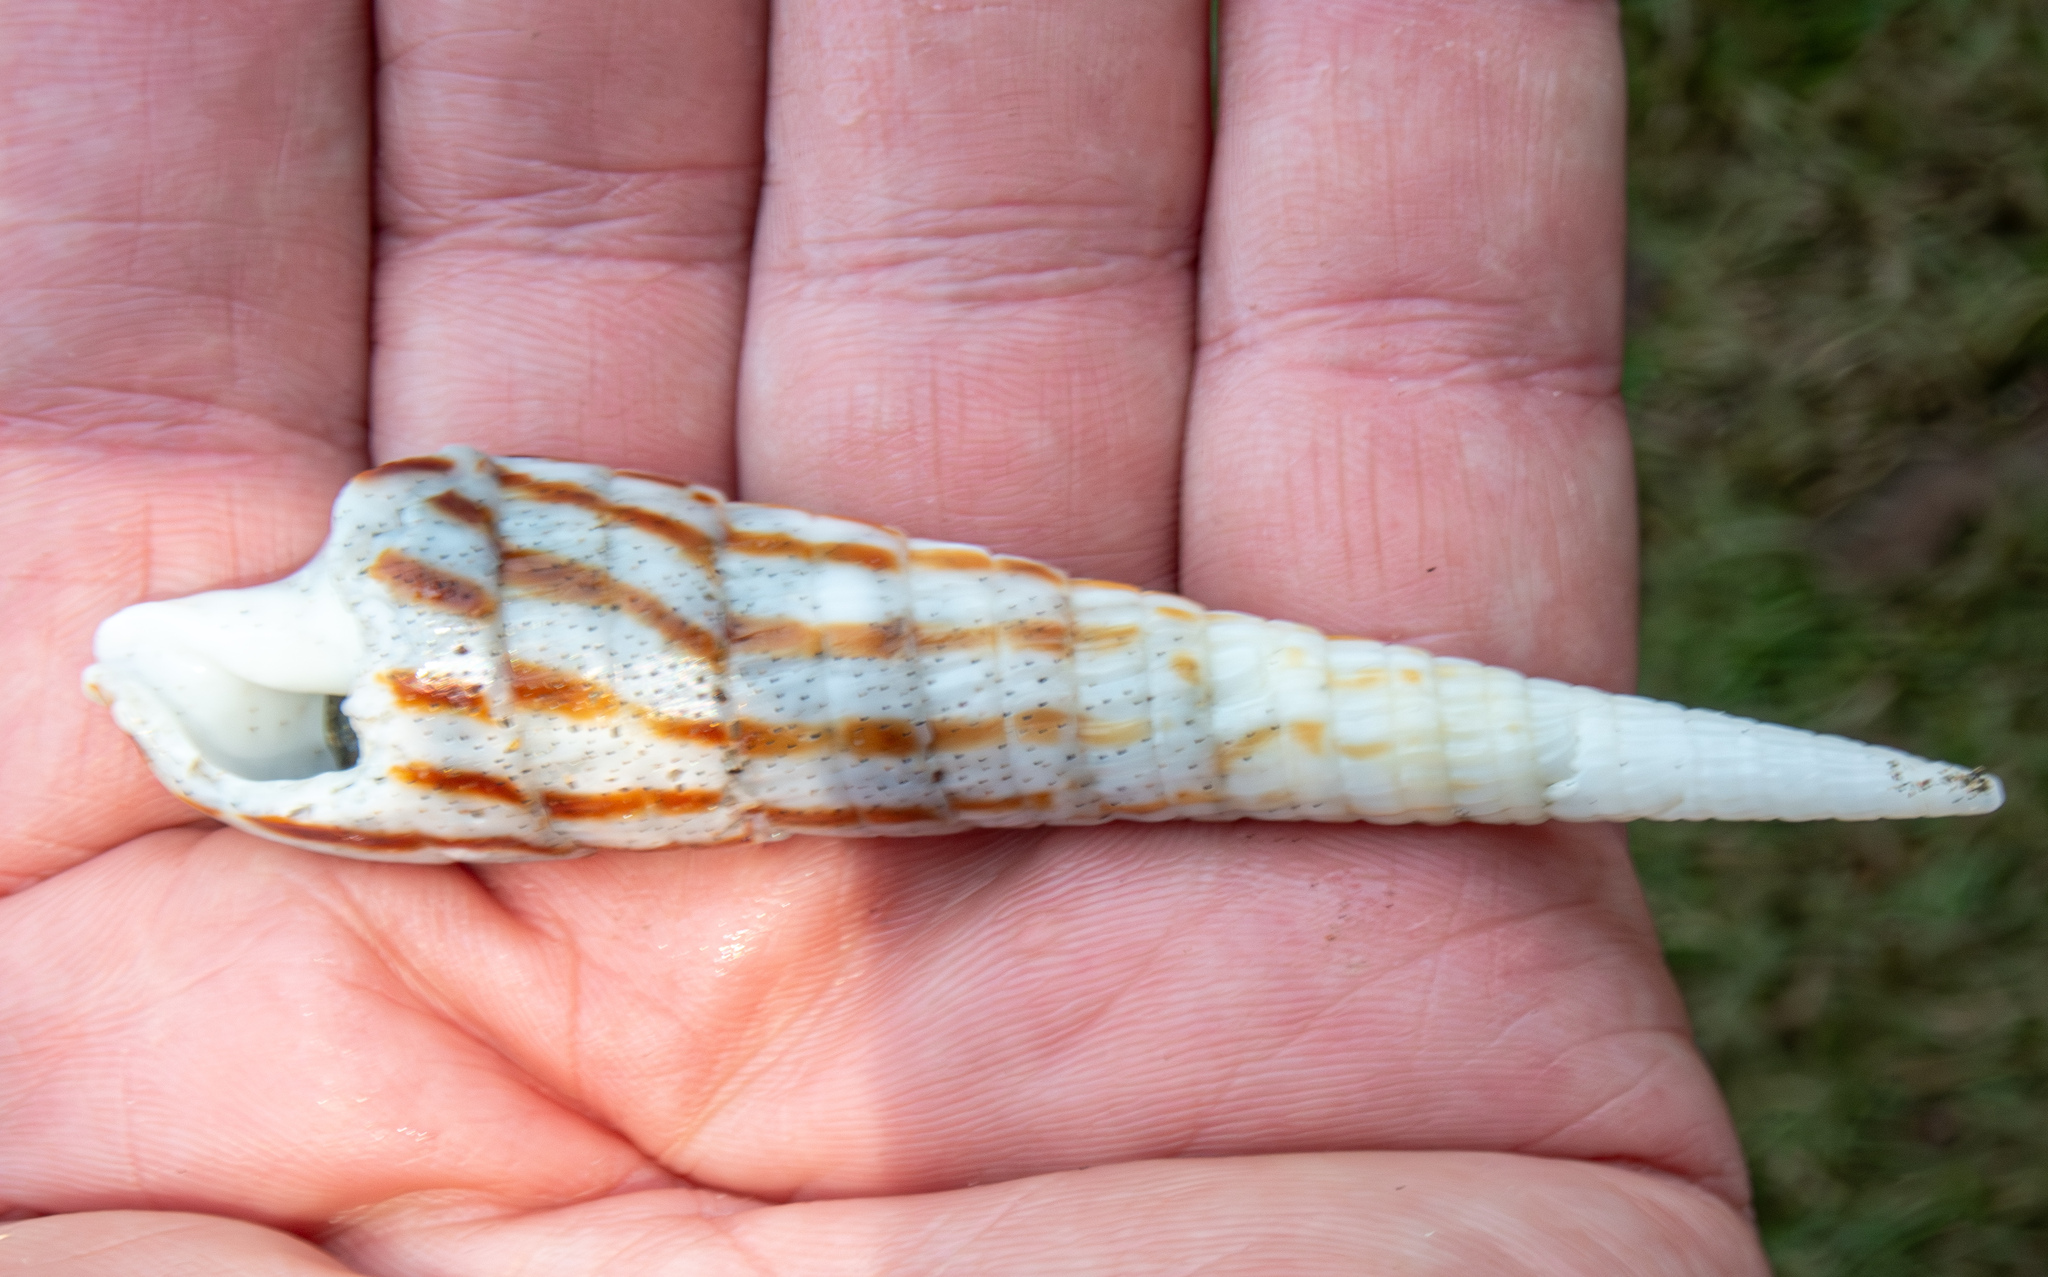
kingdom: Animalia
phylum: Mollusca
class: Gastropoda
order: Neogastropoda
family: Terebridae
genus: Oxymeris
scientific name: Oxymeris strigata
